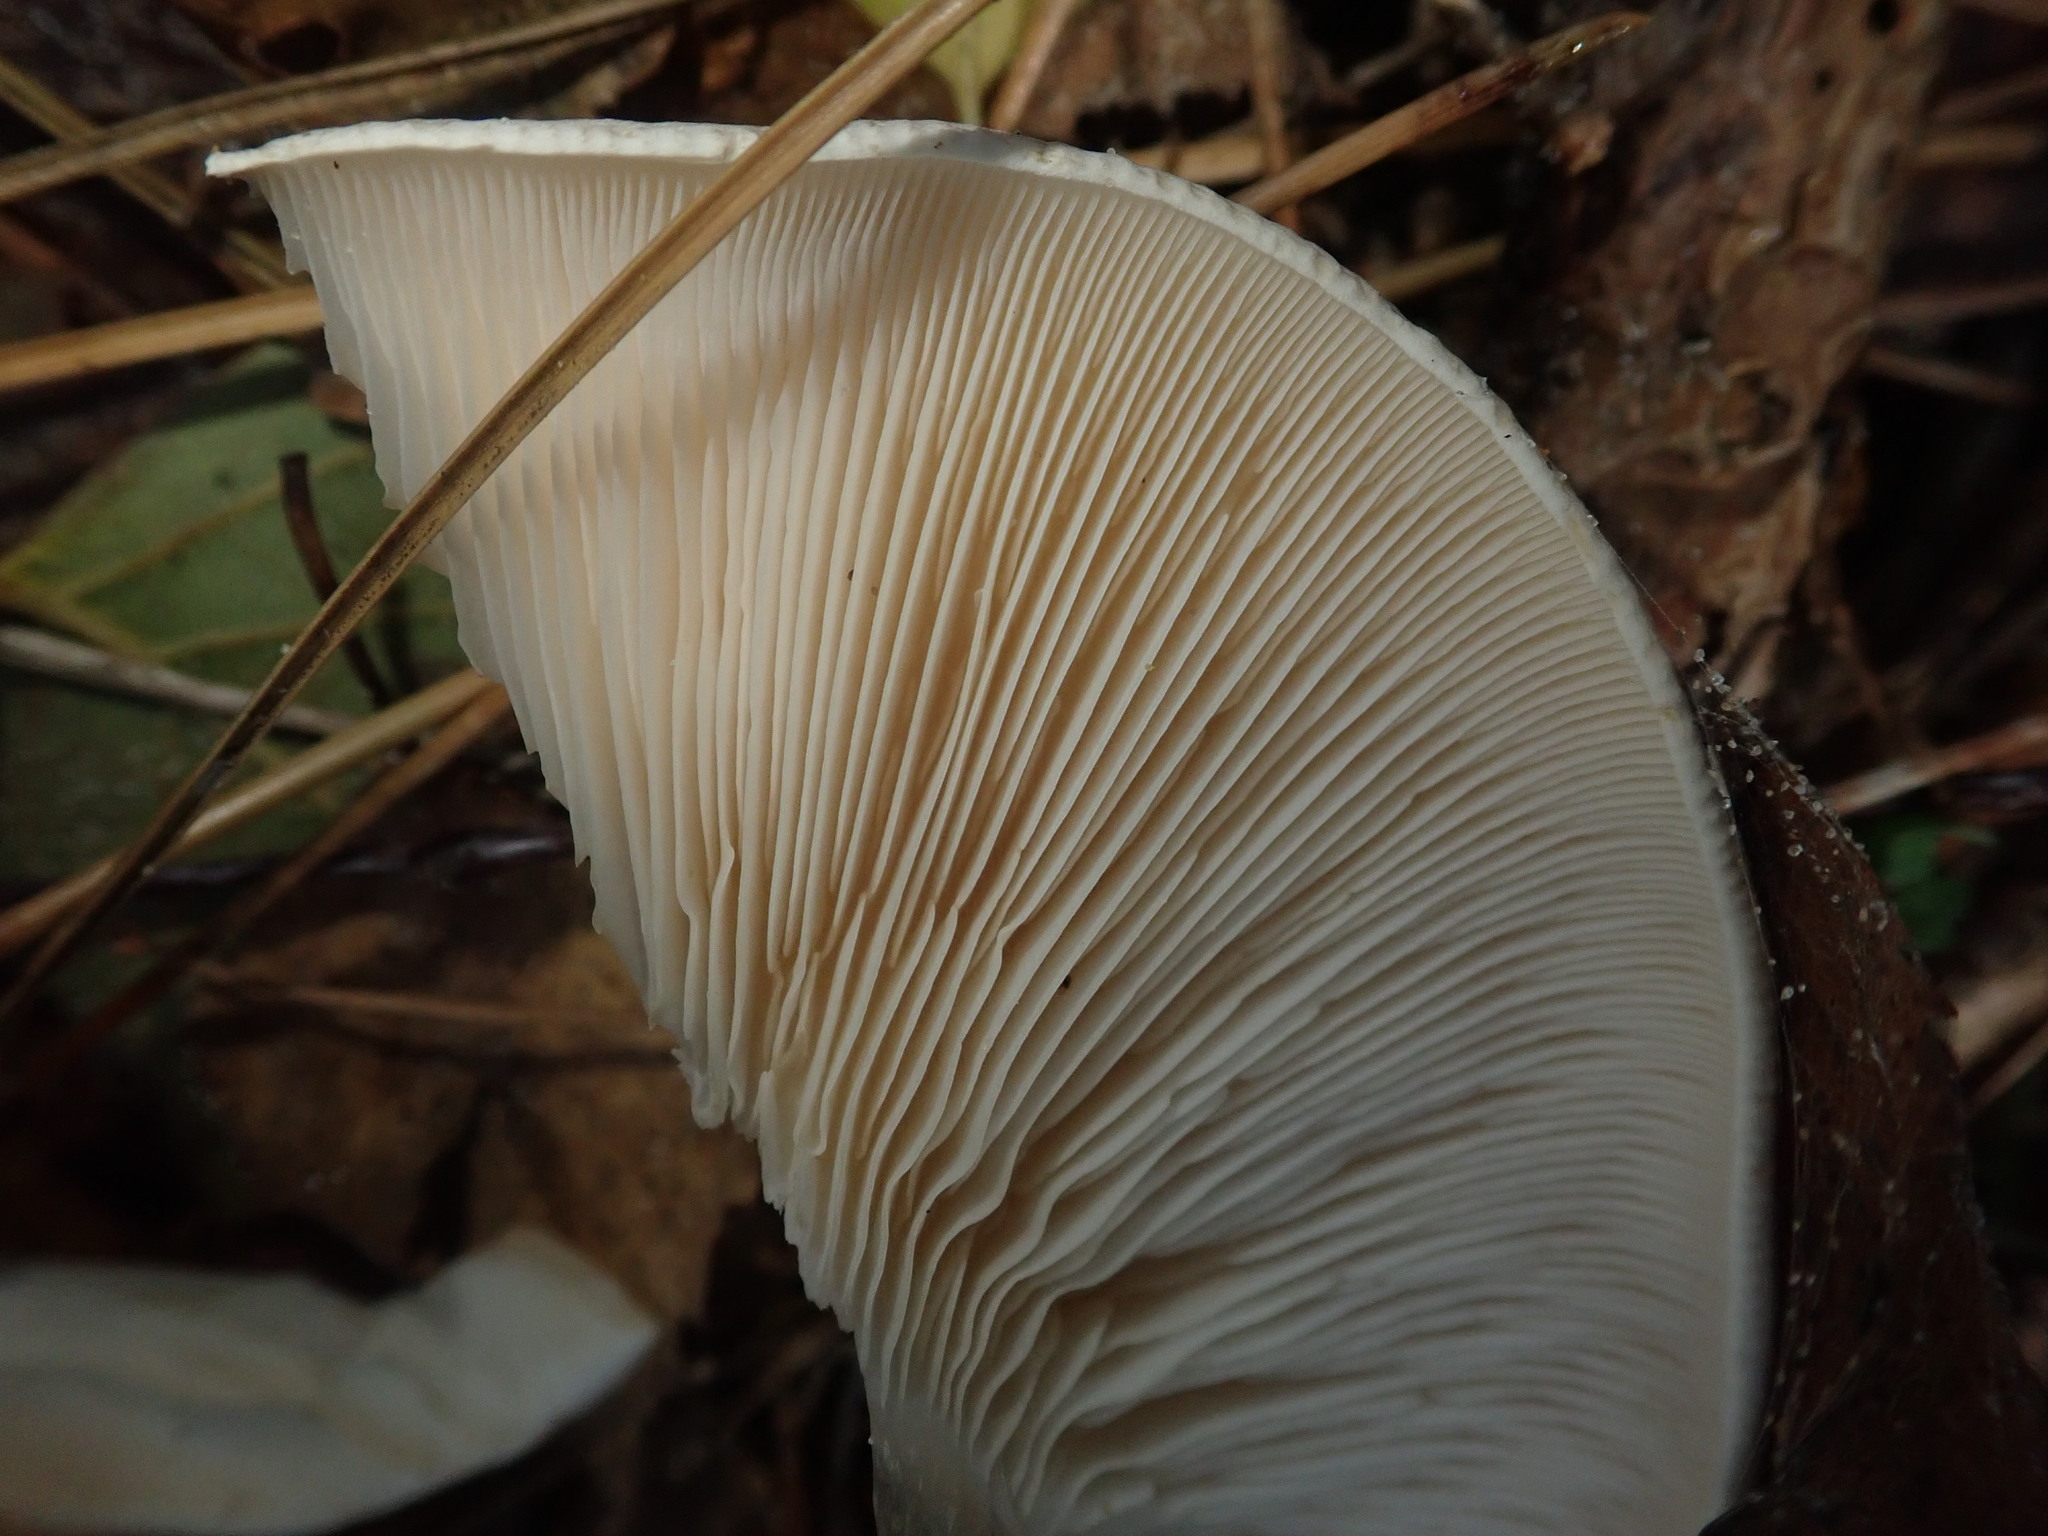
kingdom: Fungi
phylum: Basidiomycota
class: Agaricomycetes
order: Agaricales
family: Tricholomataceae
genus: Clitocybe
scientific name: Clitocybe nebularis
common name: Clouded agaric
